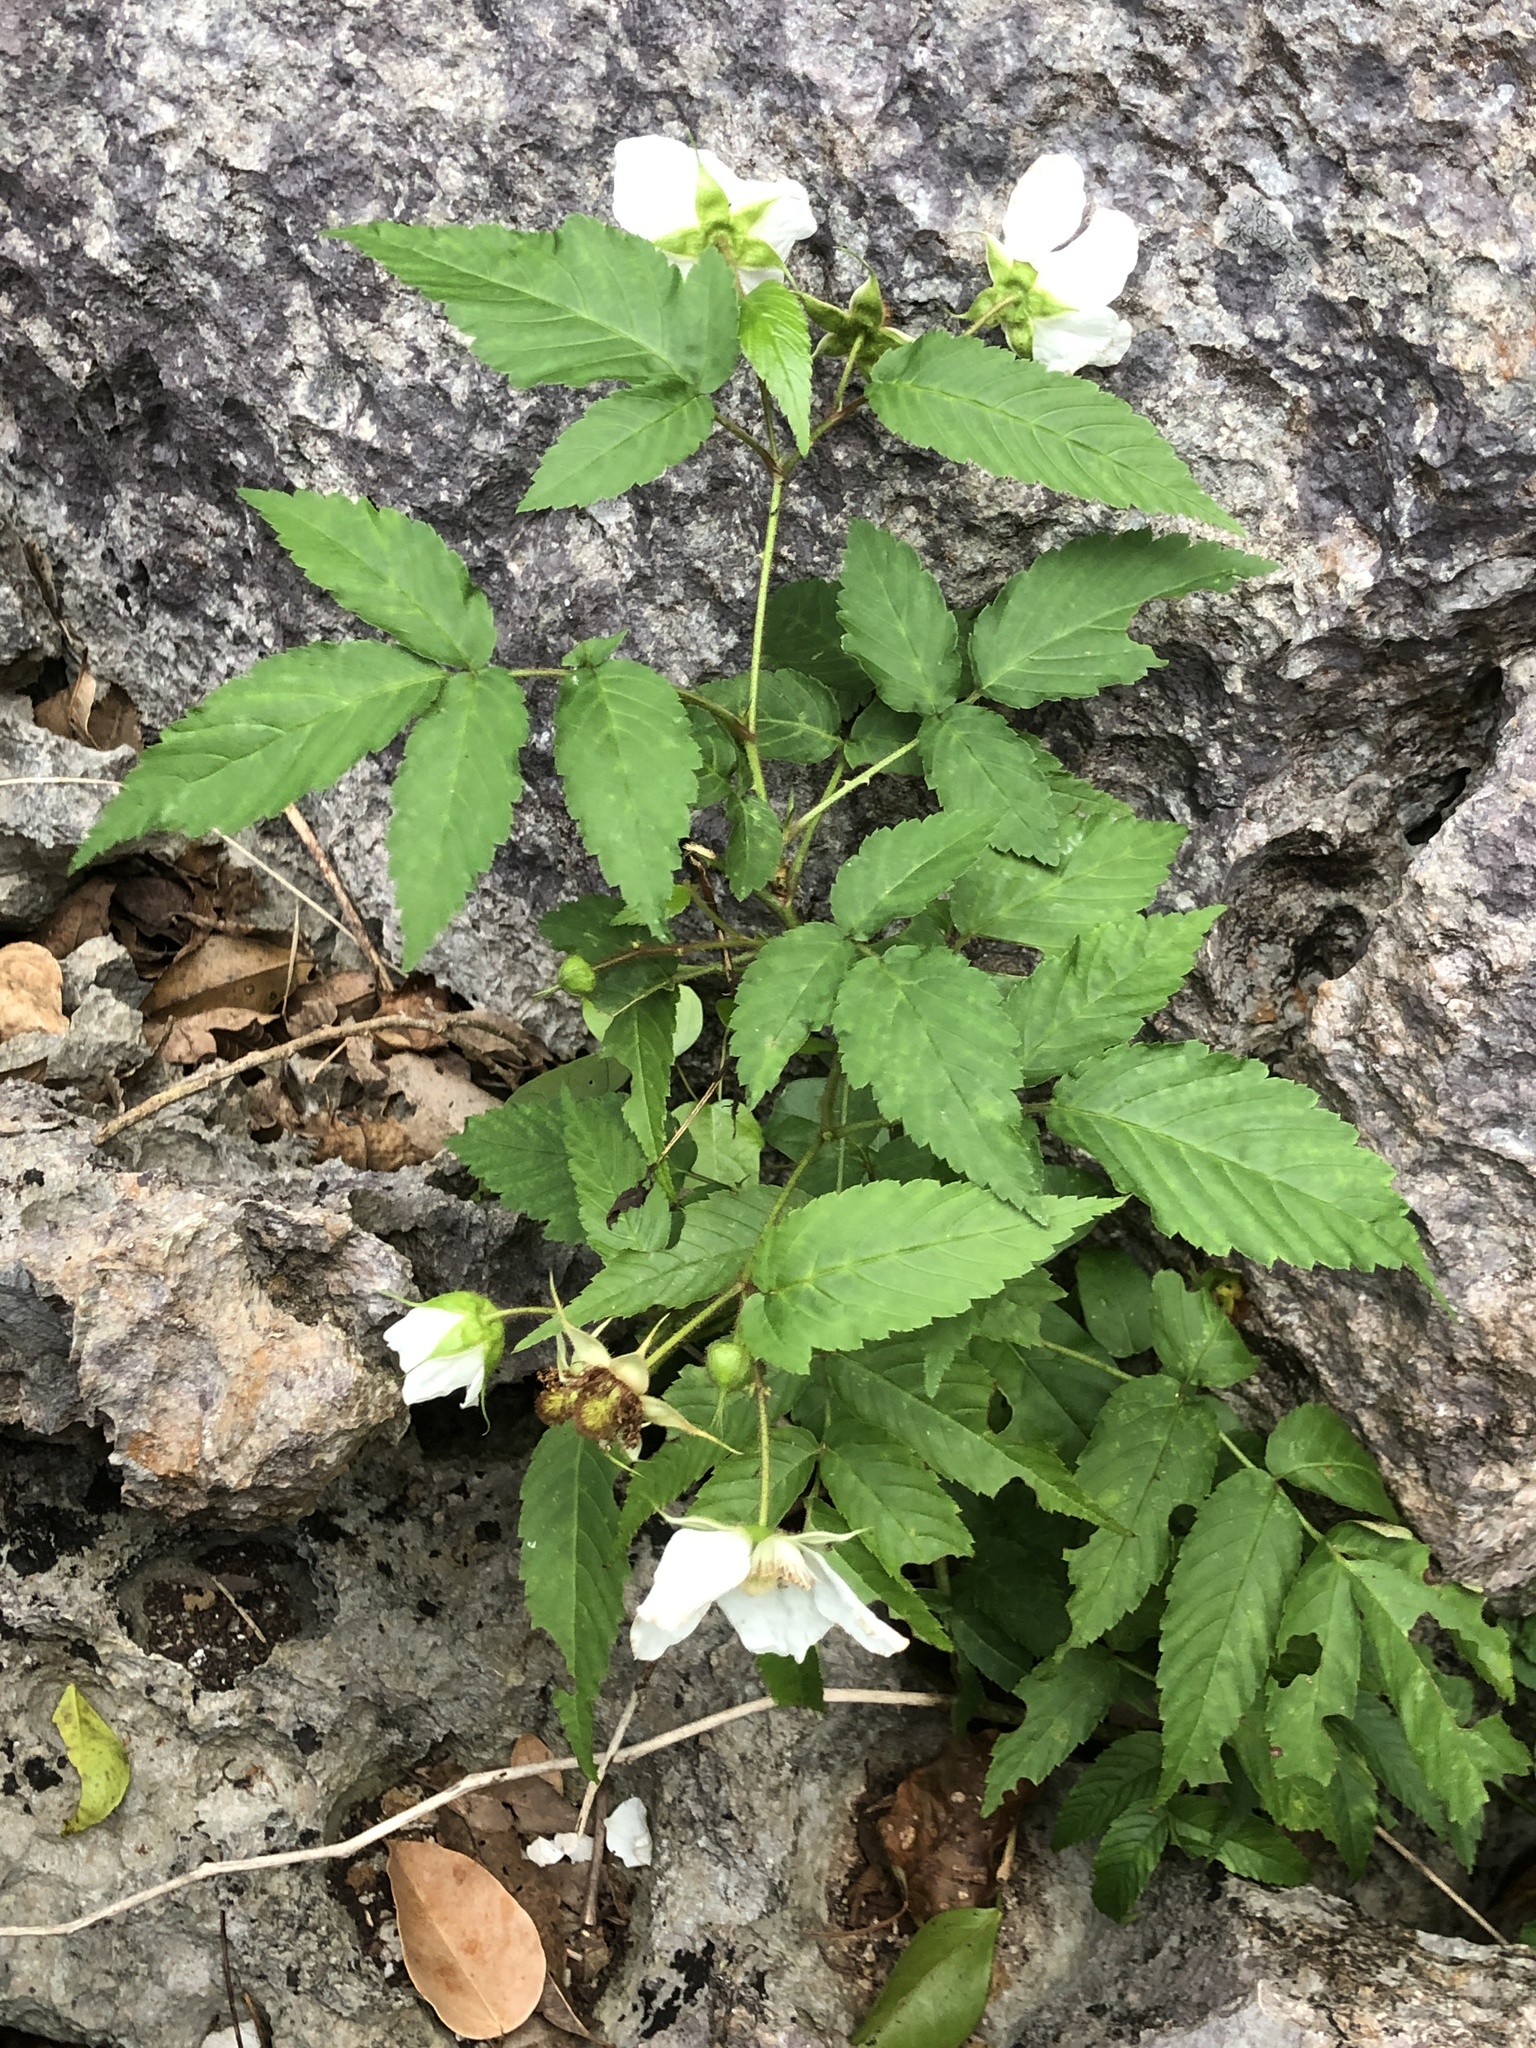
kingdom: Plantae
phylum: Tracheophyta
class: Magnoliopsida
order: Rosales
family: Rosaceae
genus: Rubus
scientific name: Rubus okinawensis
